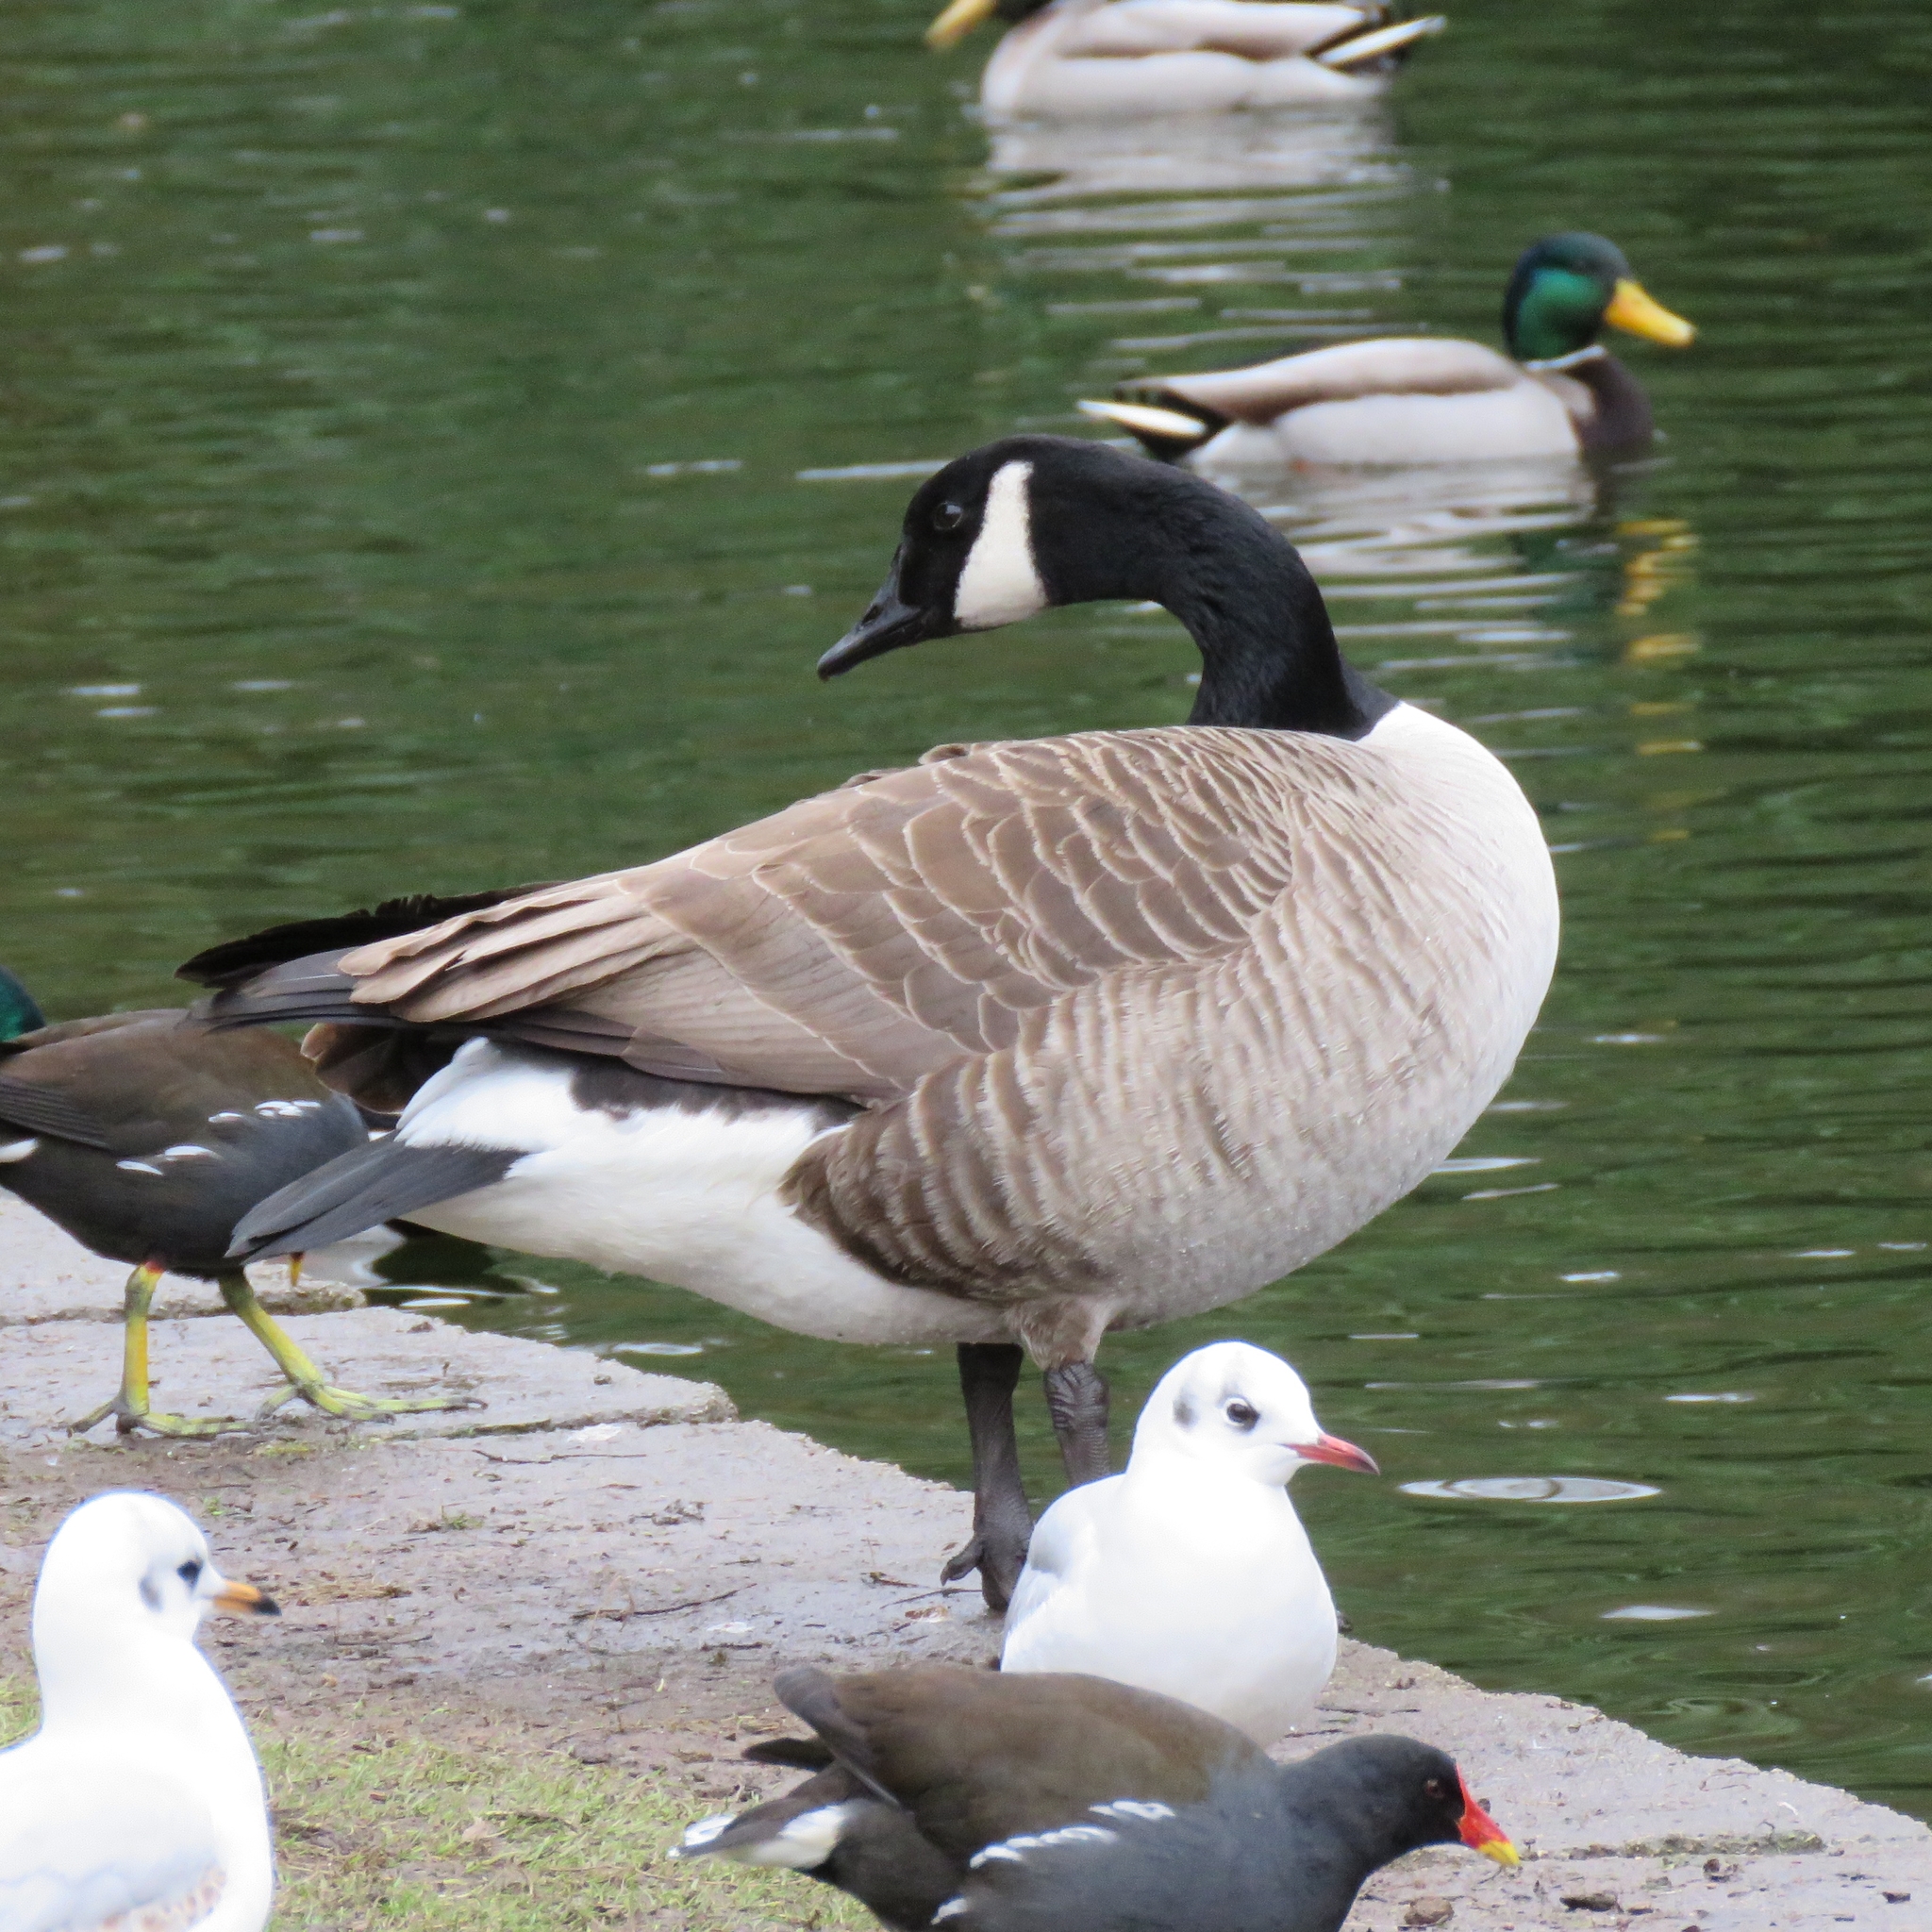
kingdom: Animalia
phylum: Chordata
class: Aves
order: Anseriformes
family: Anatidae
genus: Branta
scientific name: Branta canadensis
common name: Canada goose
